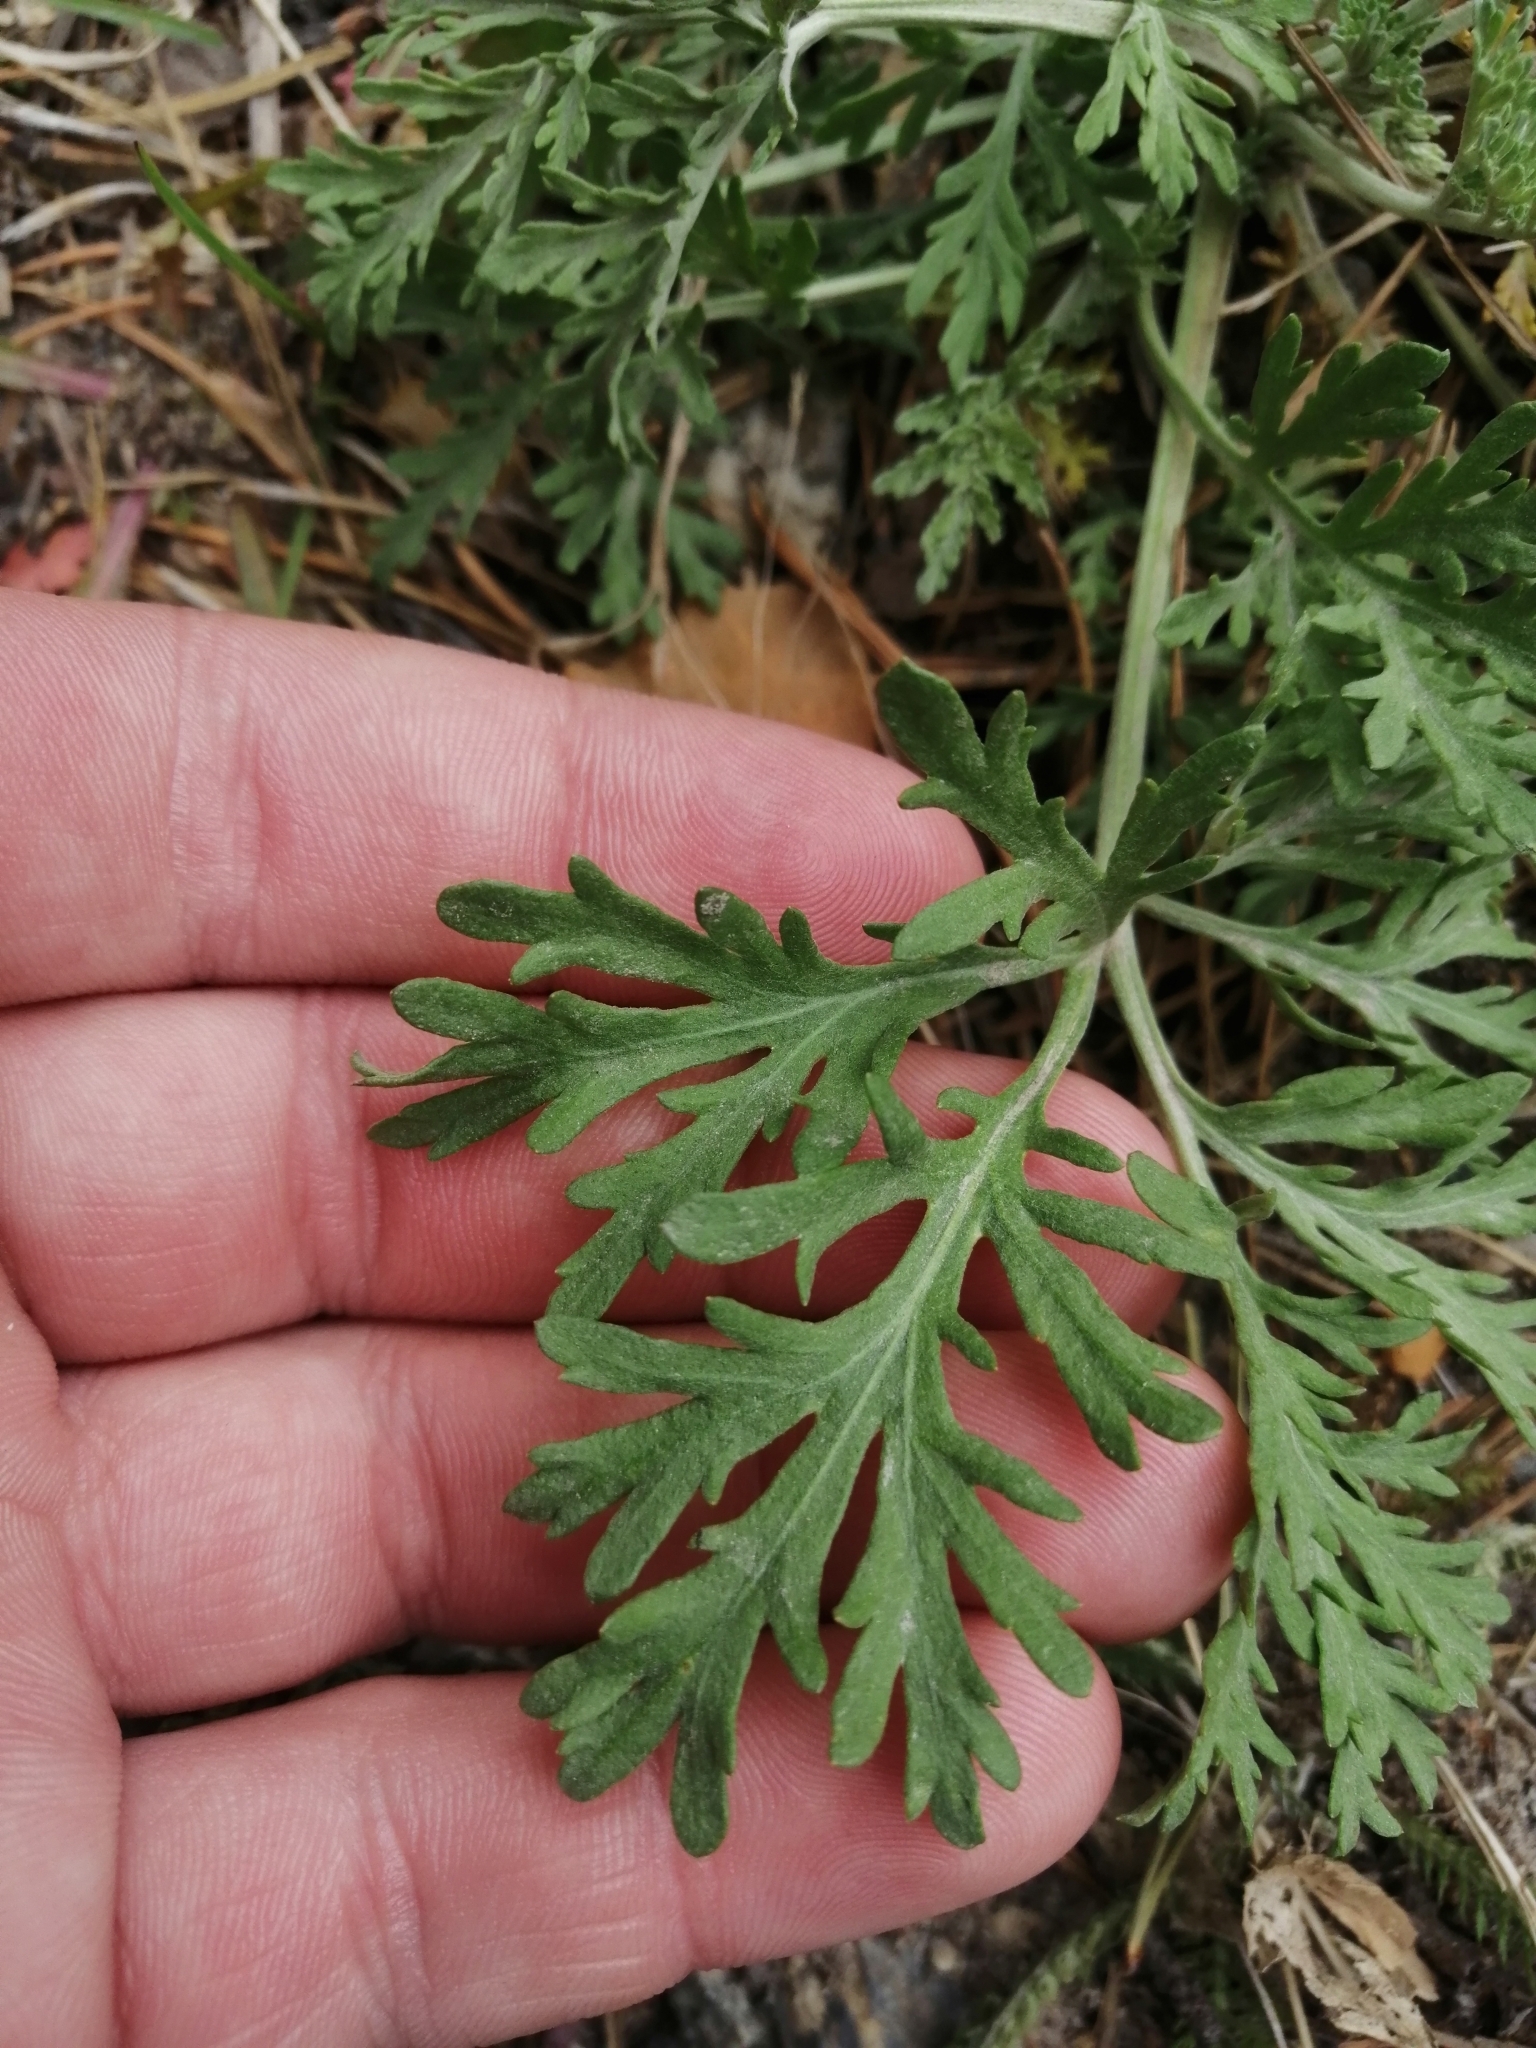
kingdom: Plantae
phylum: Tracheophyta
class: Magnoliopsida
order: Asterales
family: Asteraceae
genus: Artemisia
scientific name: Artemisia sieversiana
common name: Sieversian wormwood
